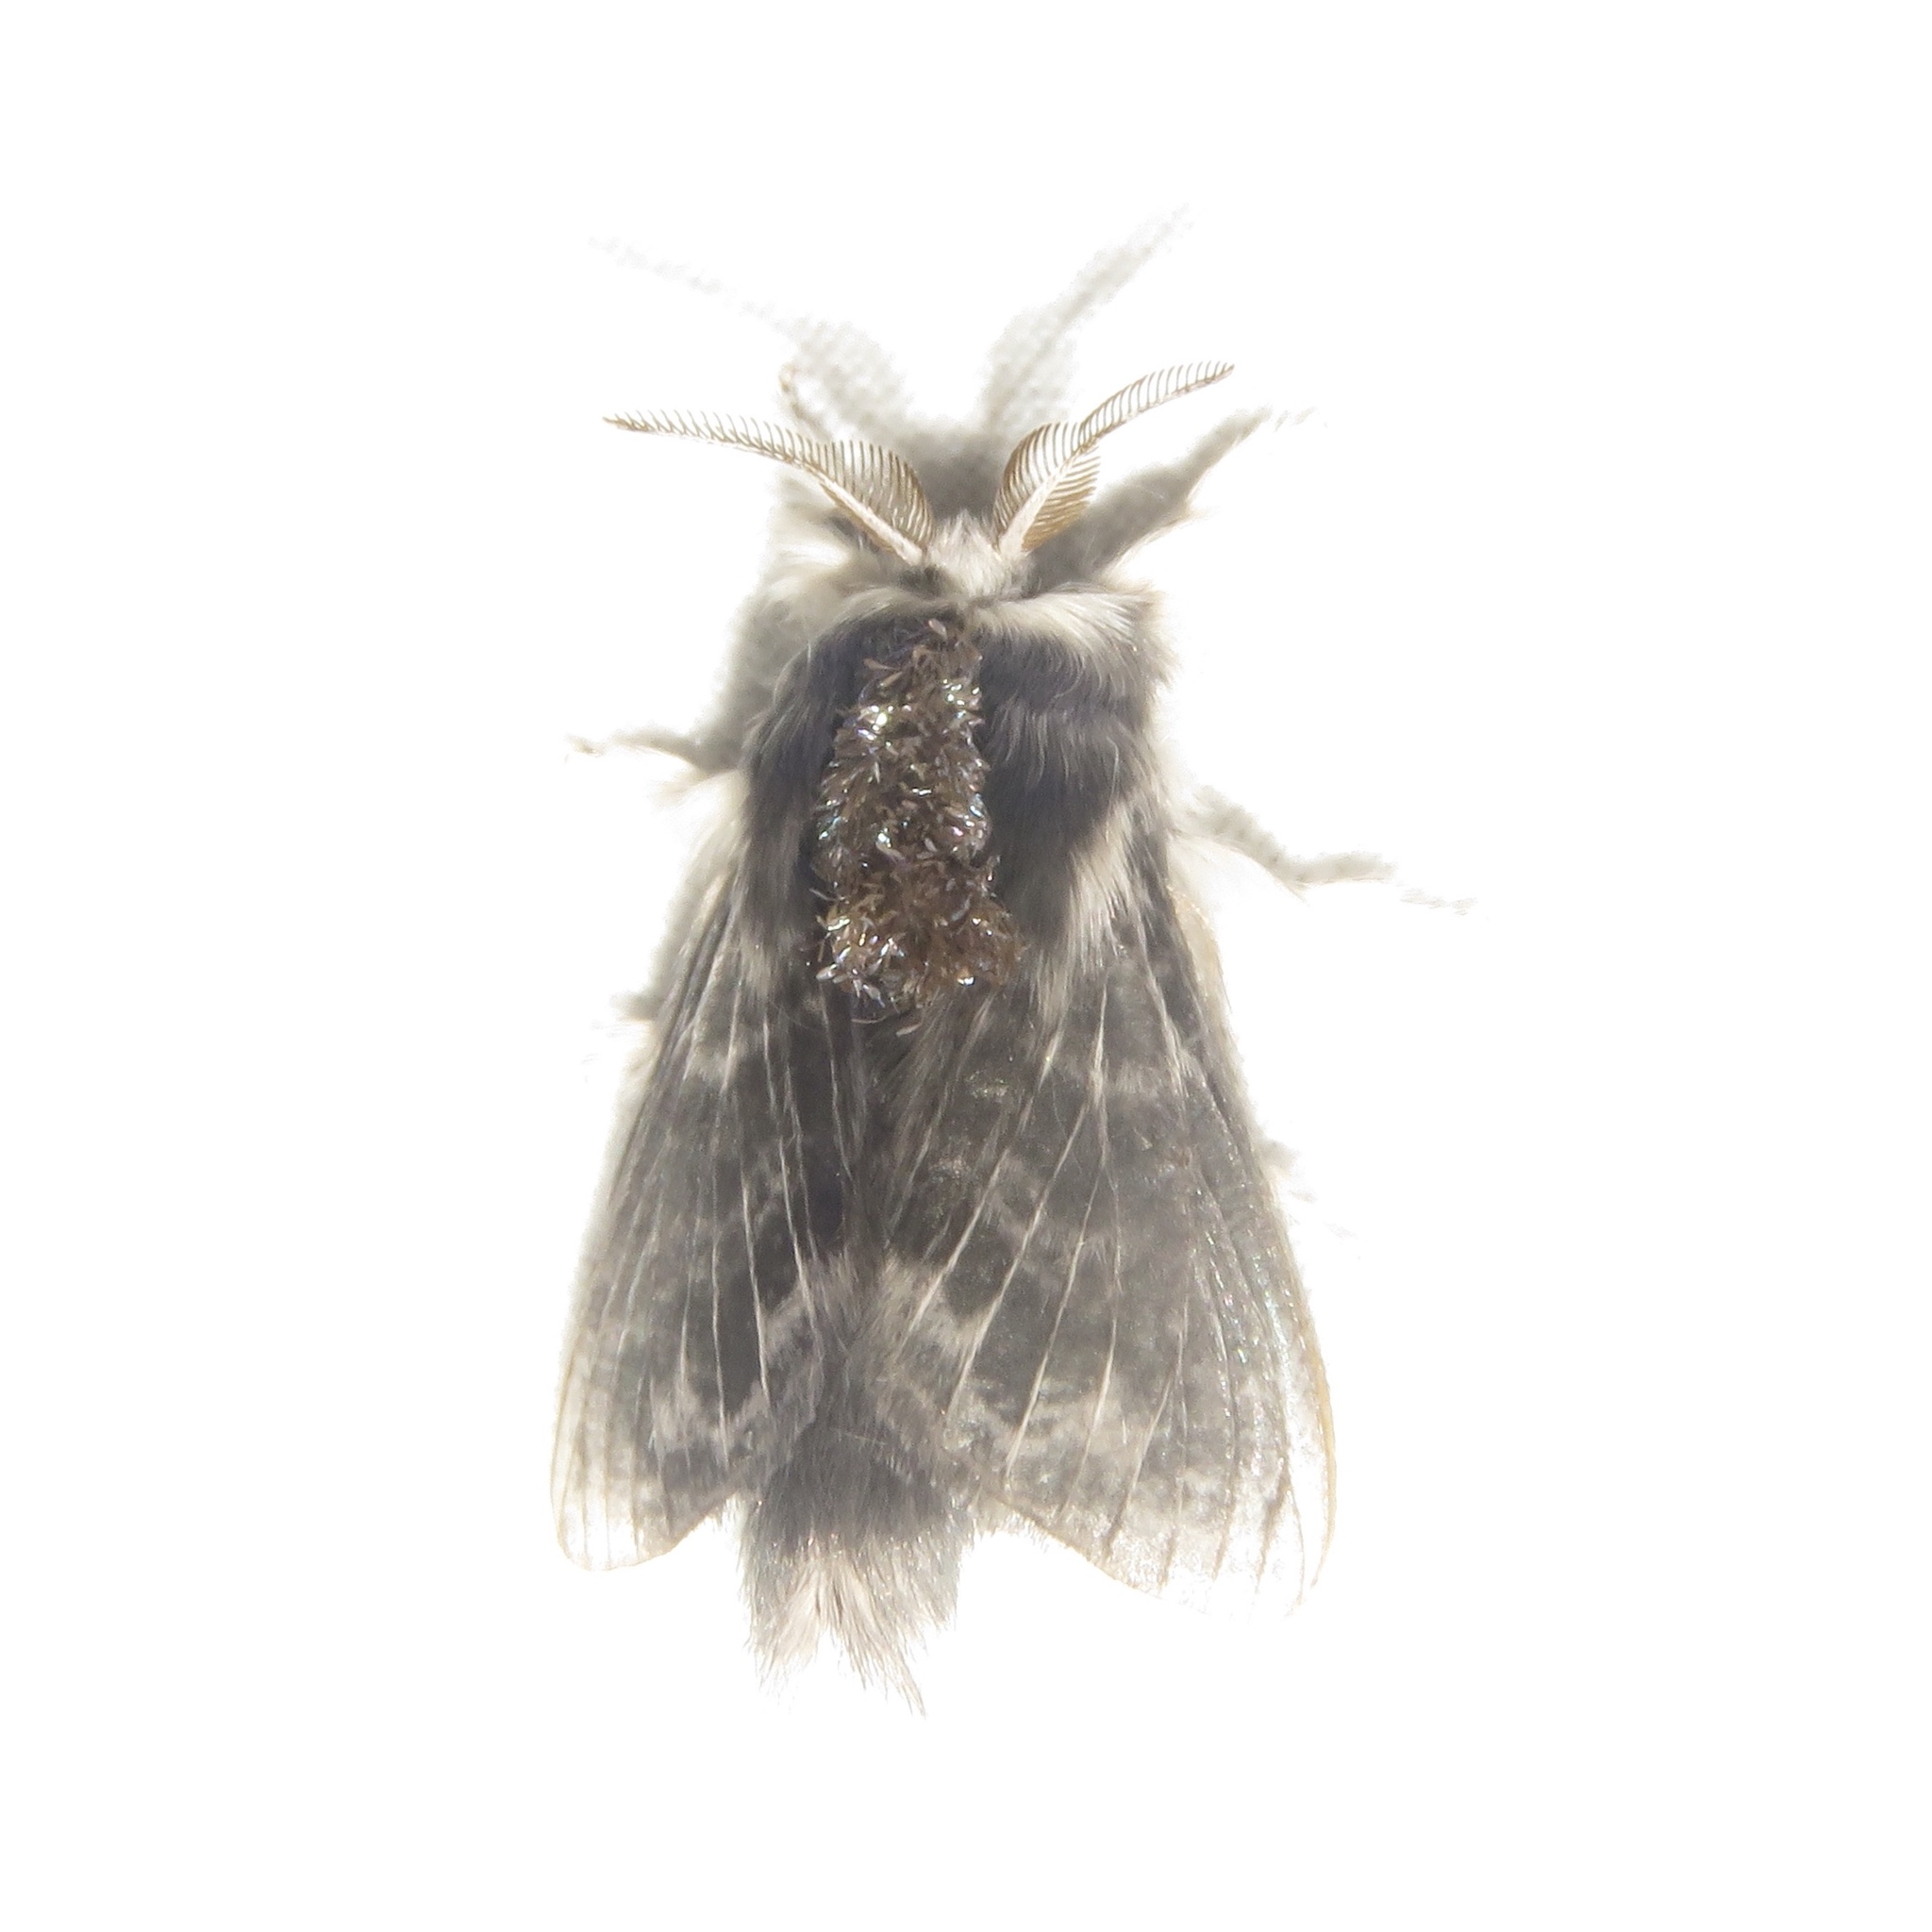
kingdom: Animalia
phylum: Arthropoda
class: Insecta
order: Lepidoptera
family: Lasiocampidae
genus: Tolype
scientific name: Tolype laricis
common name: Larch tolype moth
